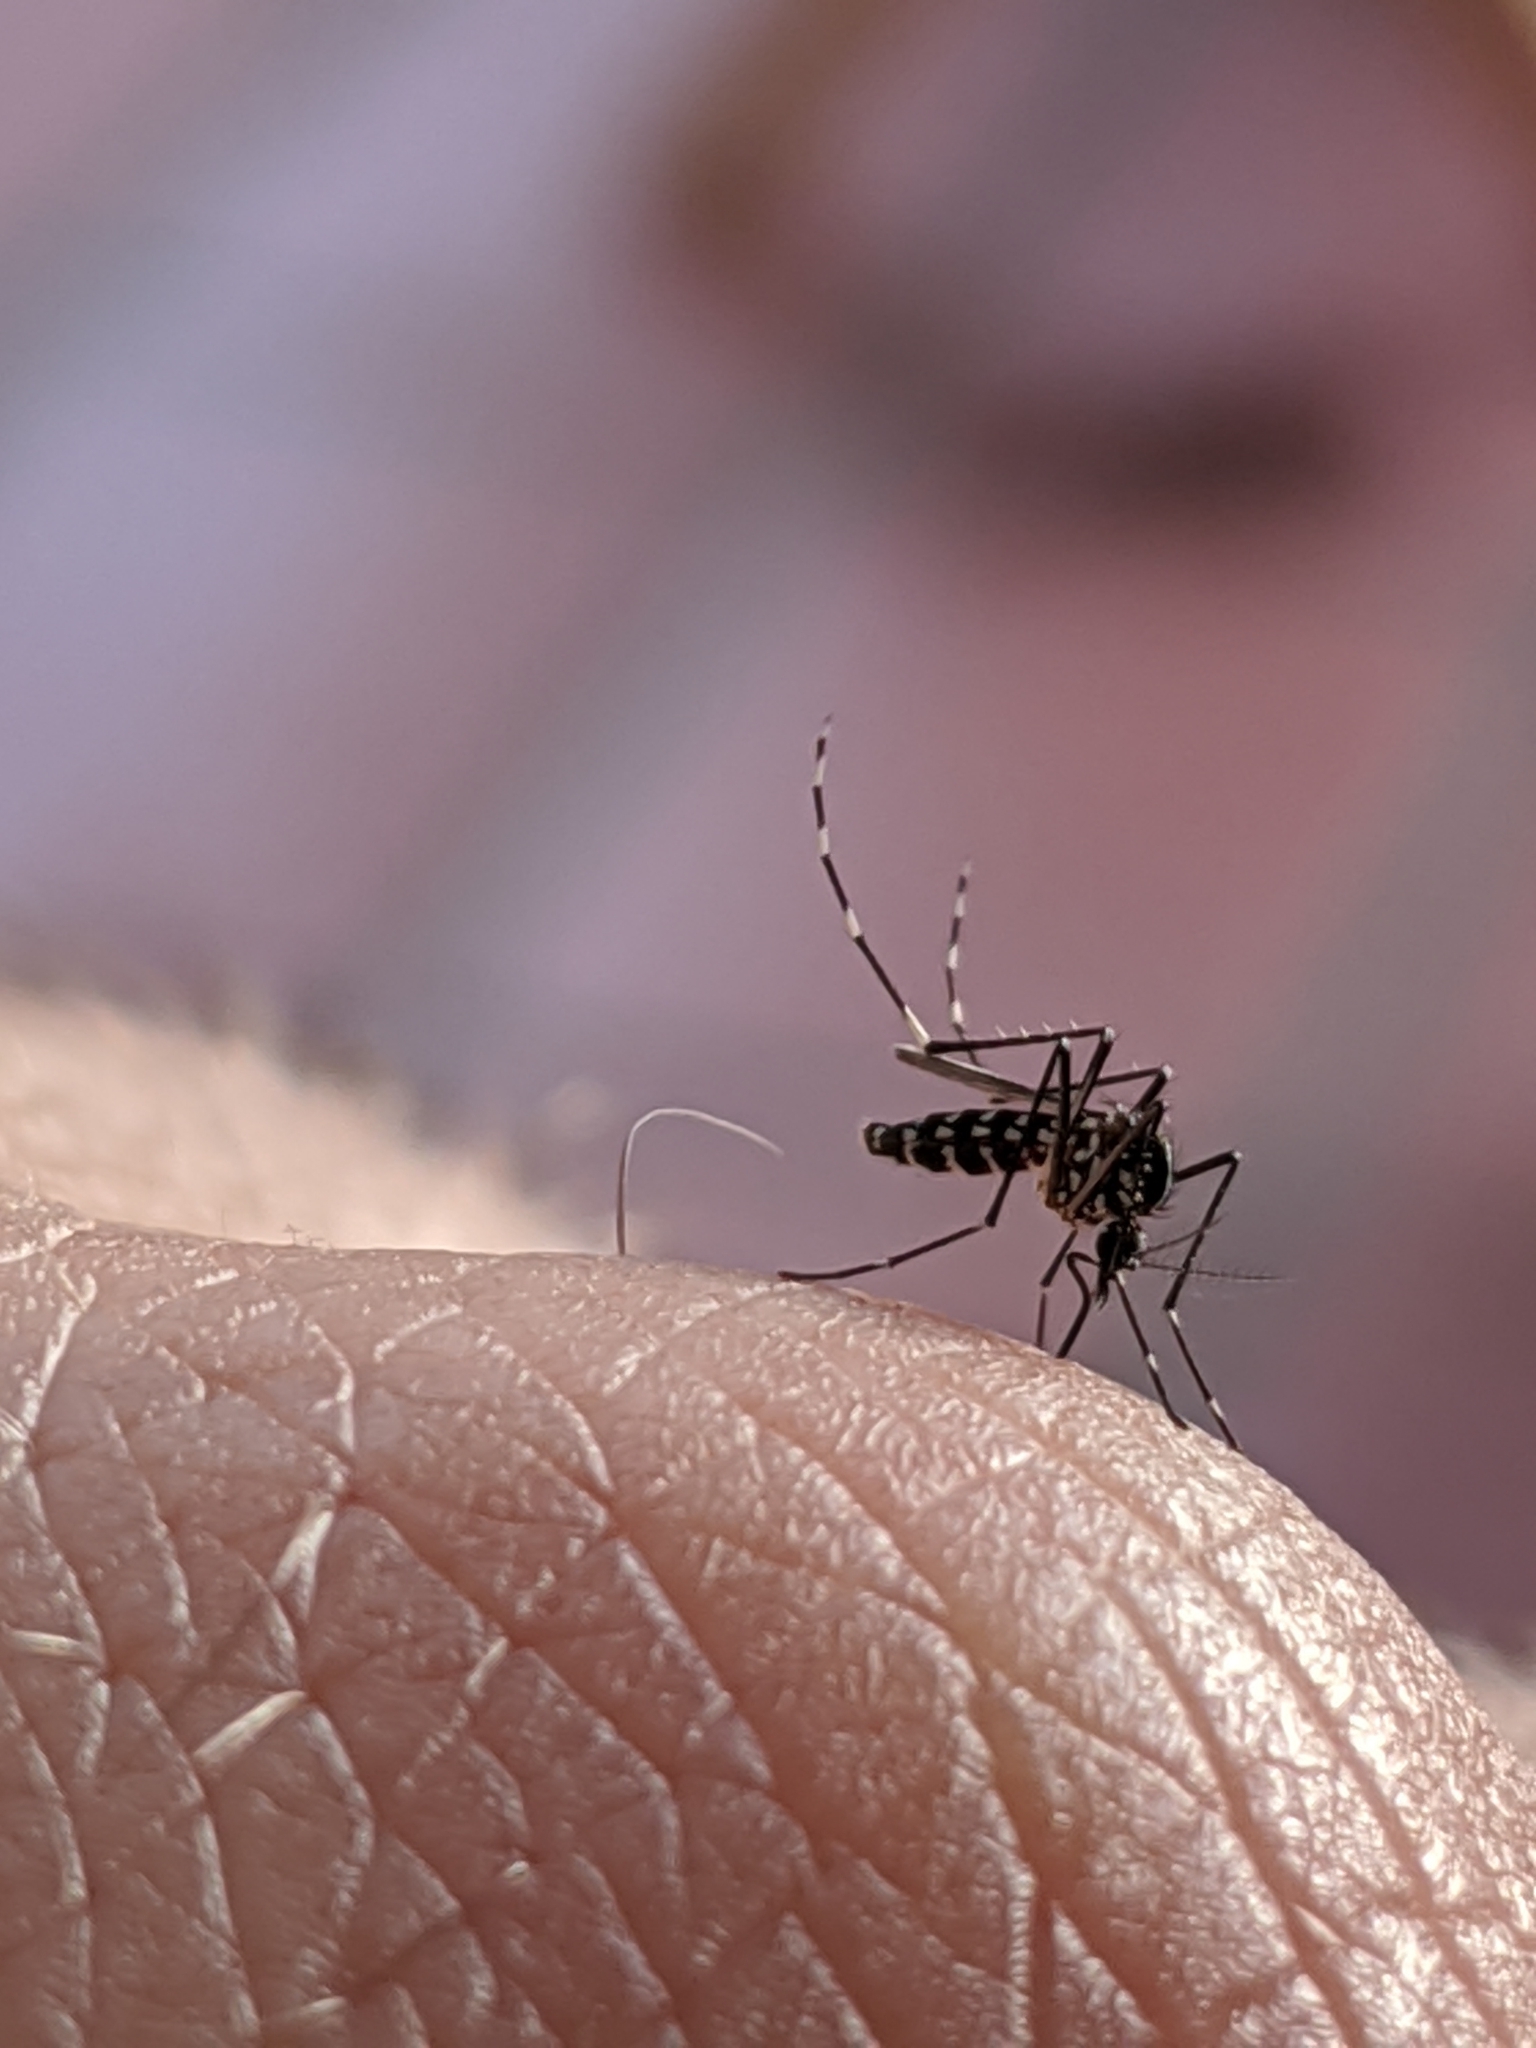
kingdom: Animalia
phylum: Arthropoda
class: Insecta
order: Diptera
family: Culicidae
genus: Aedes
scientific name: Aedes albopictus
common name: Tiger mosquito
